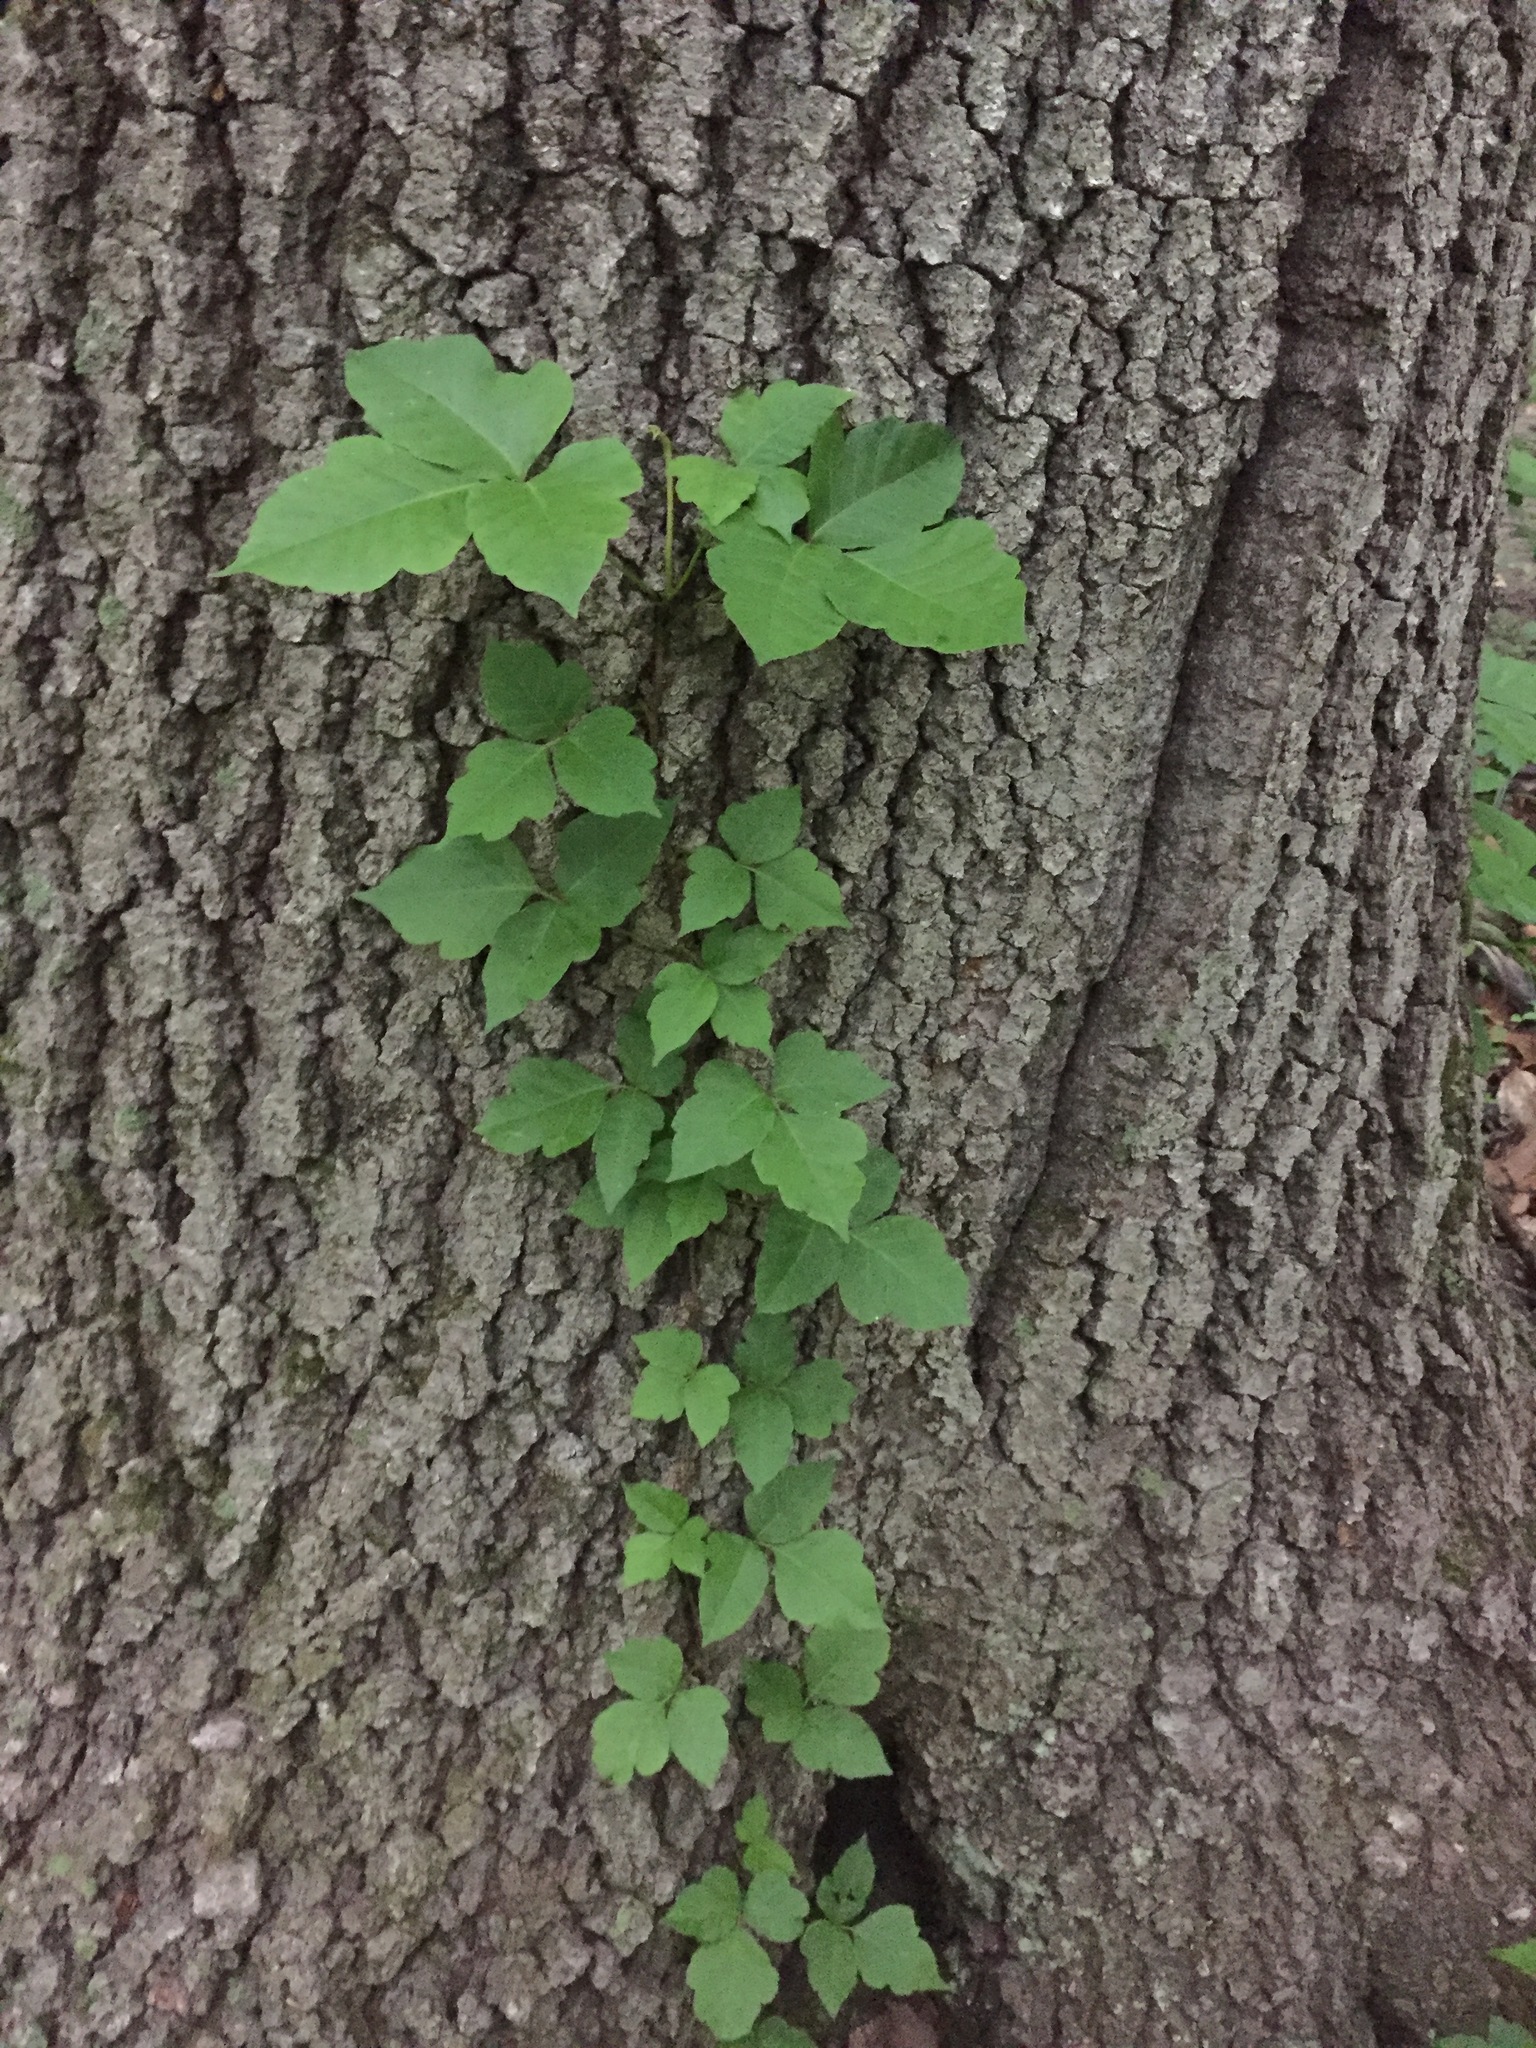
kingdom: Plantae
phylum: Tracheophyta
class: Magnoliopsida
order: Sapindales
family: Anacardiaceae
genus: Toxicodendron
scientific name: Toxicodendron radicans
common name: Poison ivy
